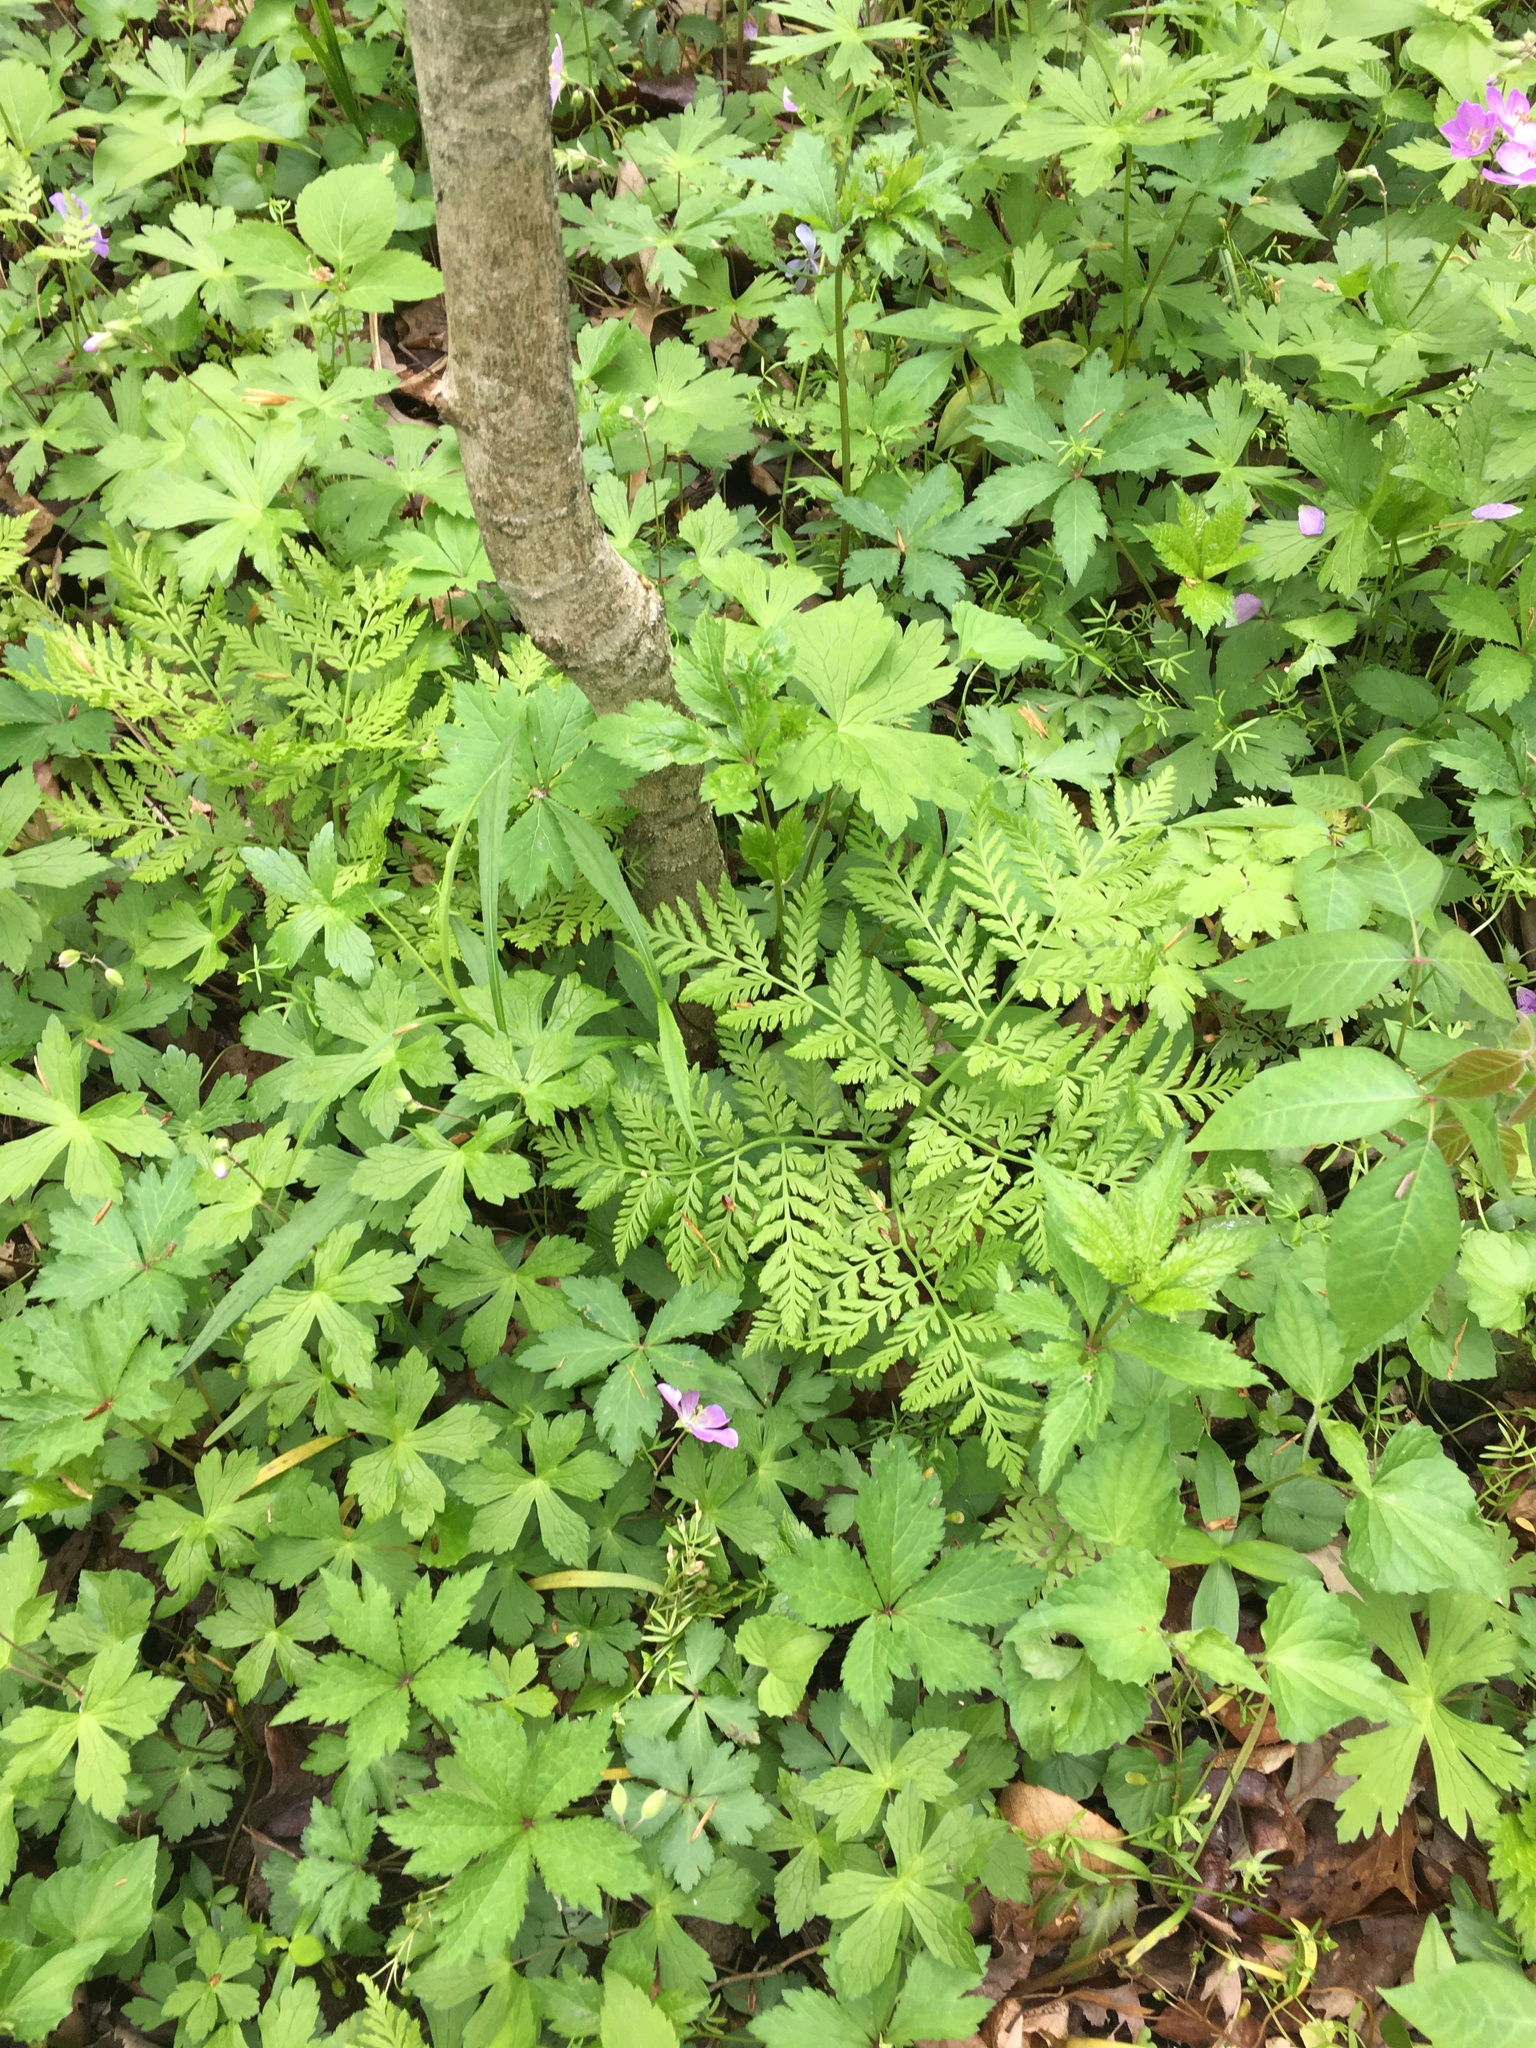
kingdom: Plantae
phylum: Tracheophyta
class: Polypodiopsida
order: Ophioglossales
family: Ophioglossaceae
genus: Botrypus
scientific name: Botrypus virginianus
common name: Common grapefern
